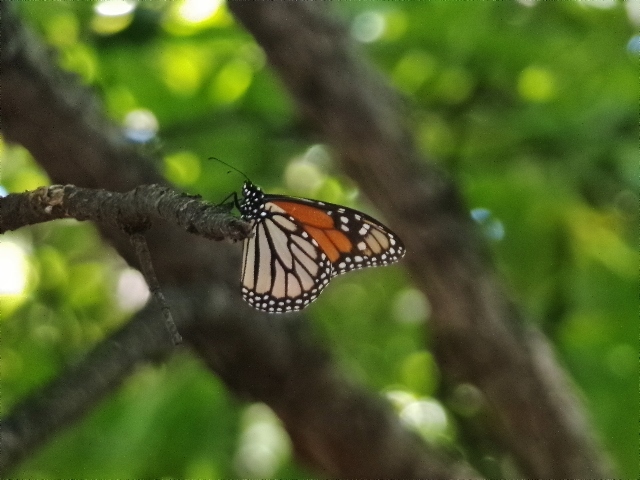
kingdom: Animalia
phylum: Arthropoda
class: Insecta
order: Lepidoptera
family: Nymphalidae
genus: Danaus
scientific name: Danaus plexippus
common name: Monarch
